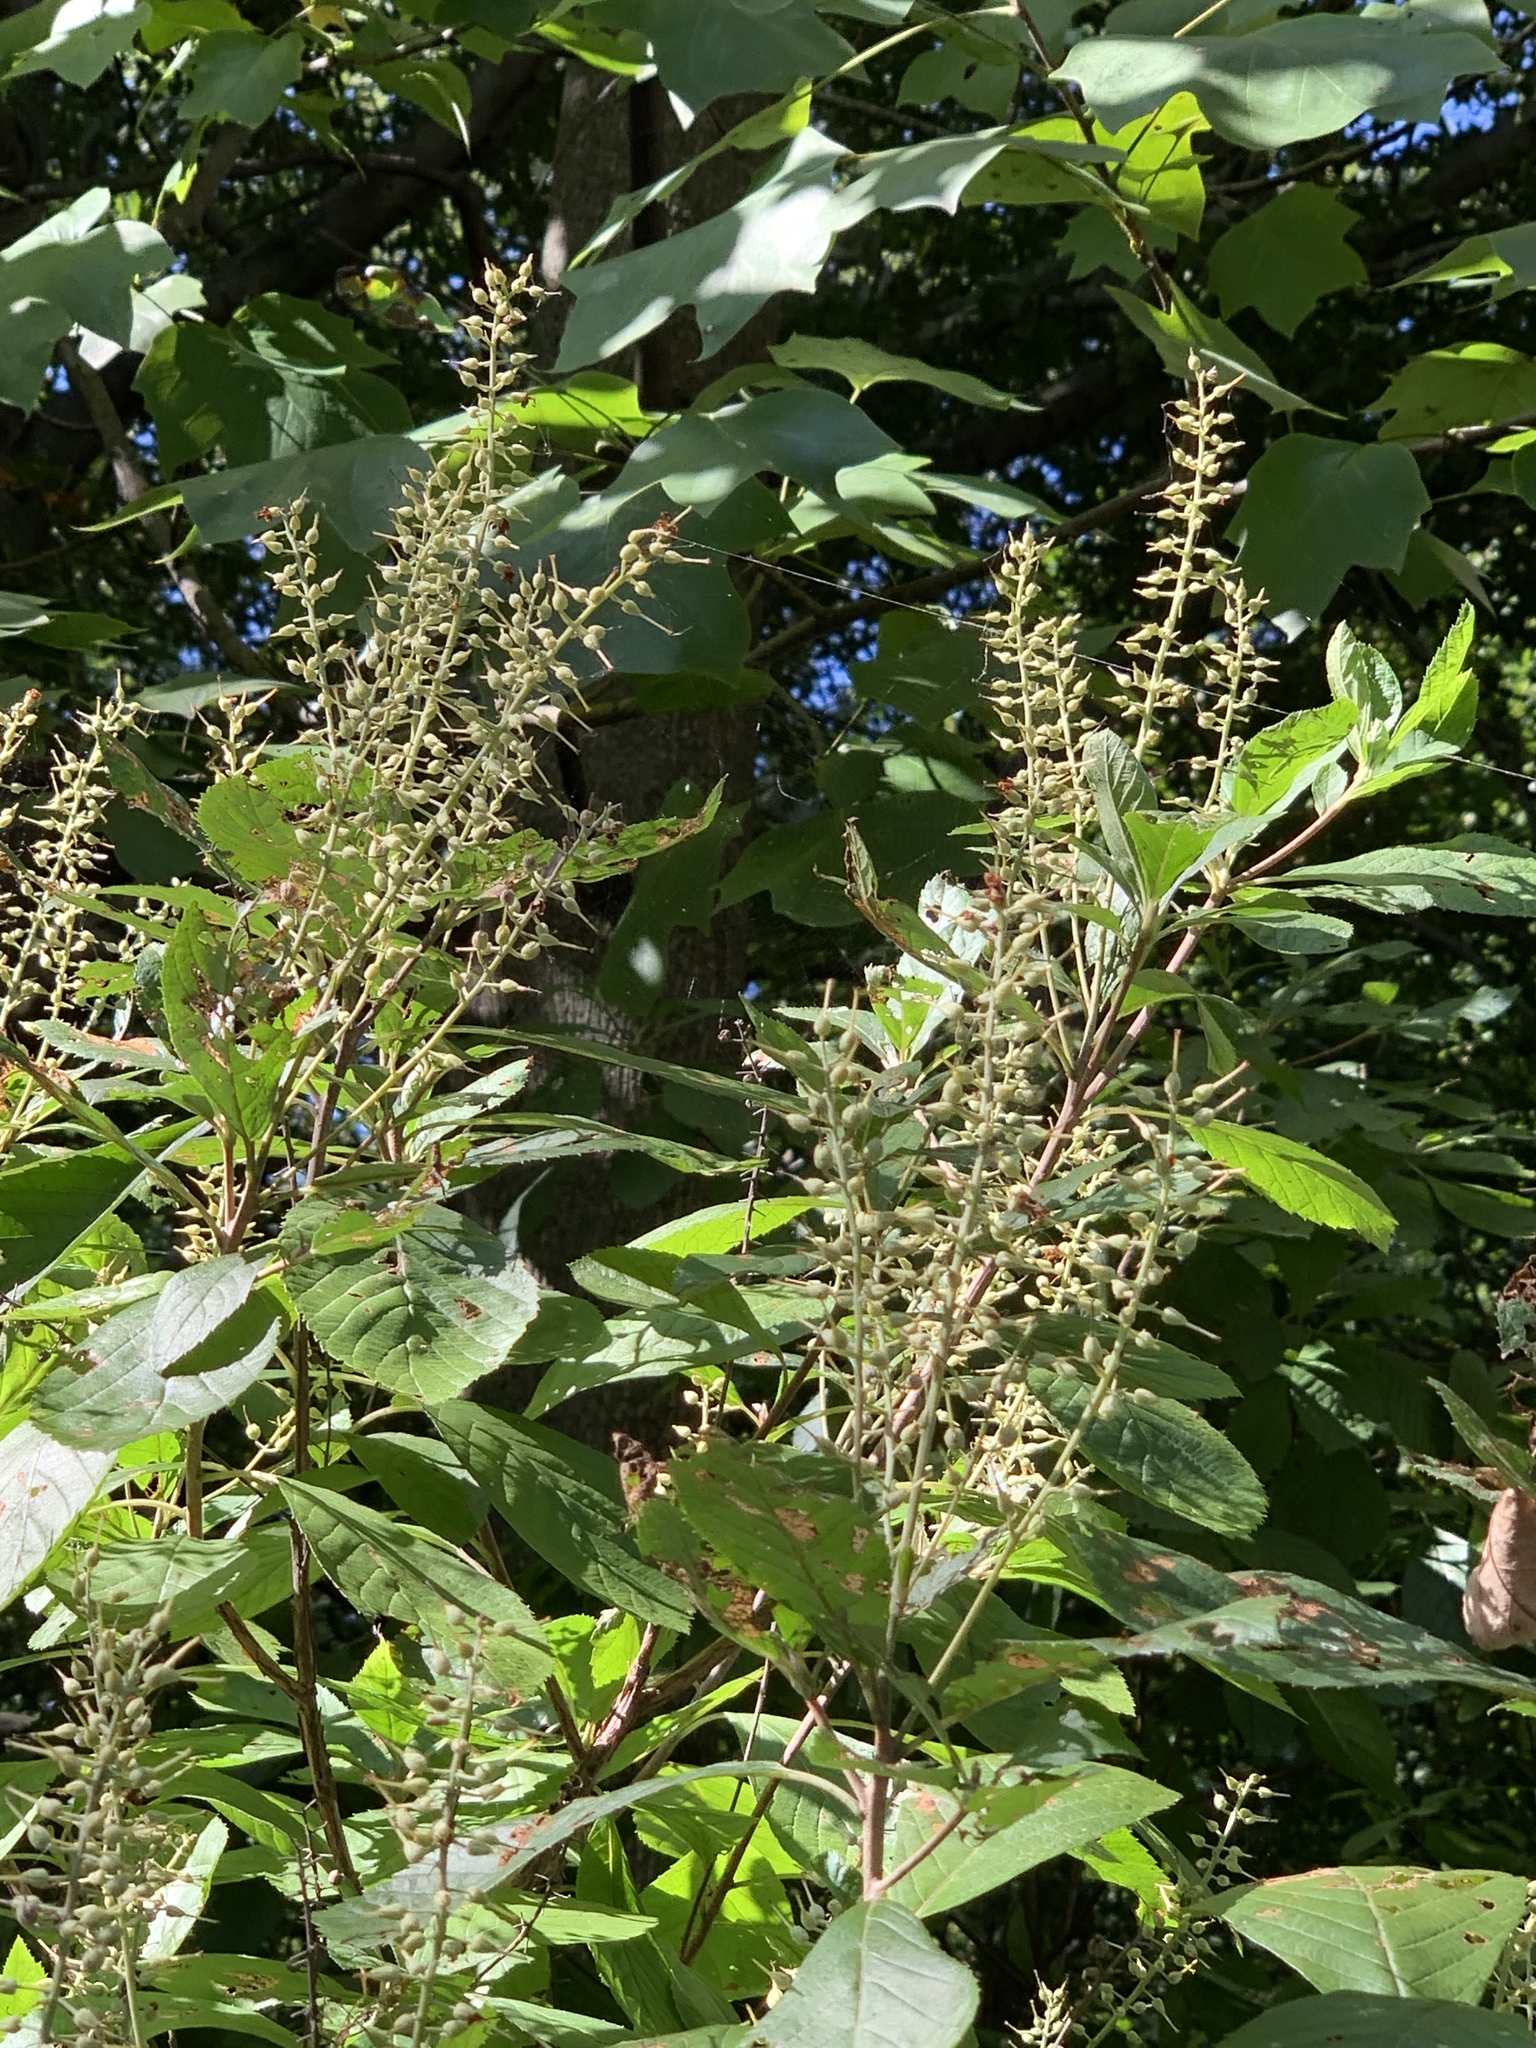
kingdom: Plantae
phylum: Tracheophyta
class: Magnoliopsida
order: Ericales
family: Clethraceae
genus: Clethra
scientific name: Clethra alnifolia
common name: Sweet pepperbush
